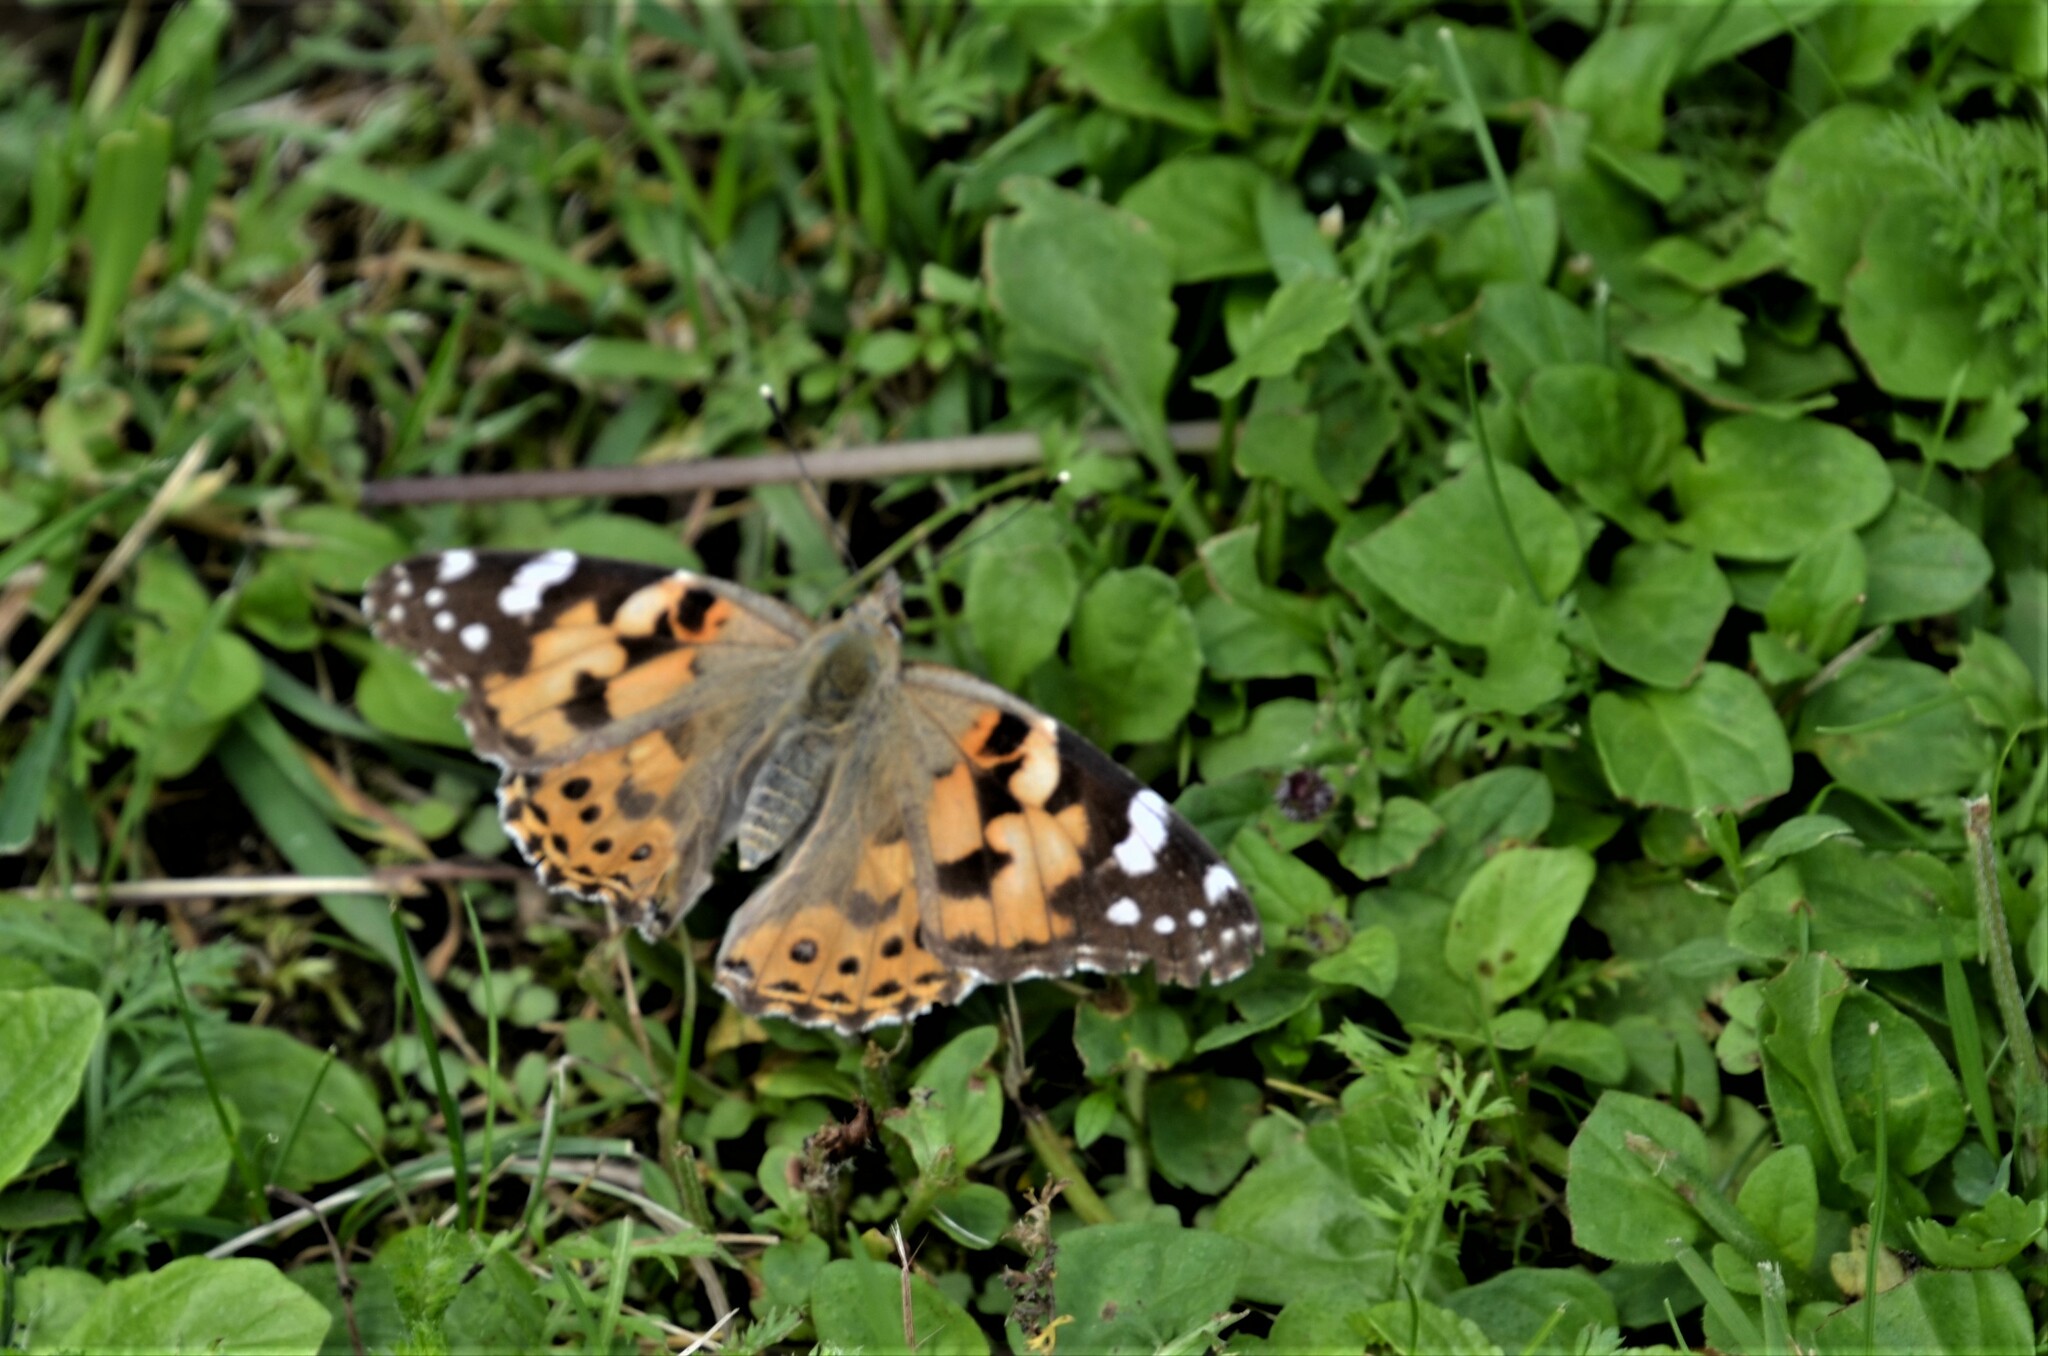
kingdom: Animalia
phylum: Arthropoda
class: Insecta
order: Lepidoptera
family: Nymphalidae
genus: Vanessa
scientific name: Vanessa cardui
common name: Painted lady
